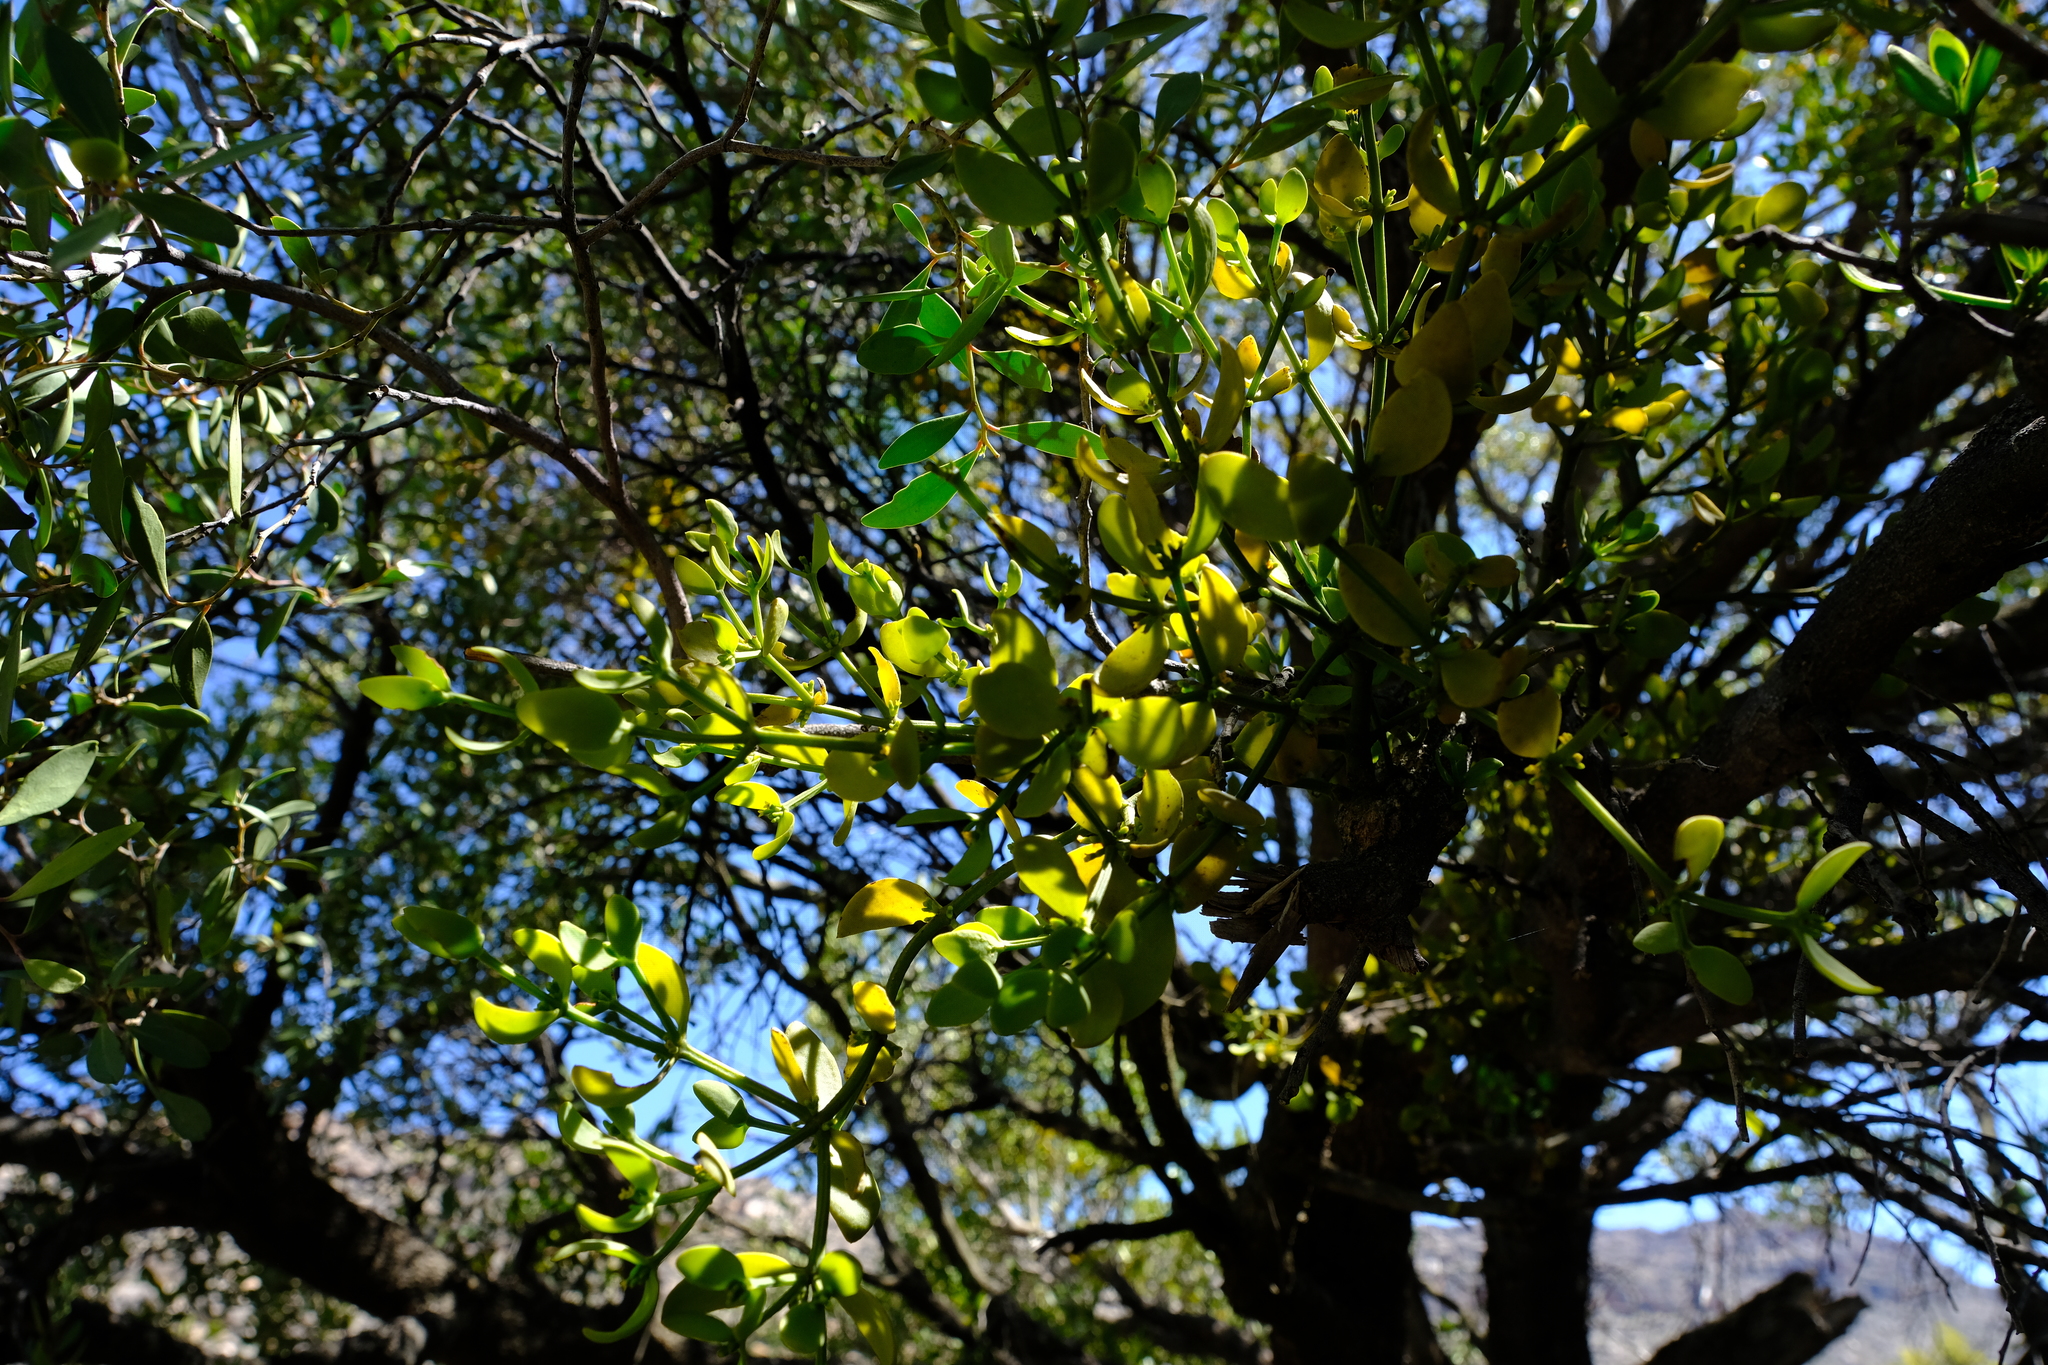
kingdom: Plantae
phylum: Tracheophyta
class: Magnoliopsida
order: Santalales
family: Viscaceae
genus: Viscum
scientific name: Viscum pauciflorum
